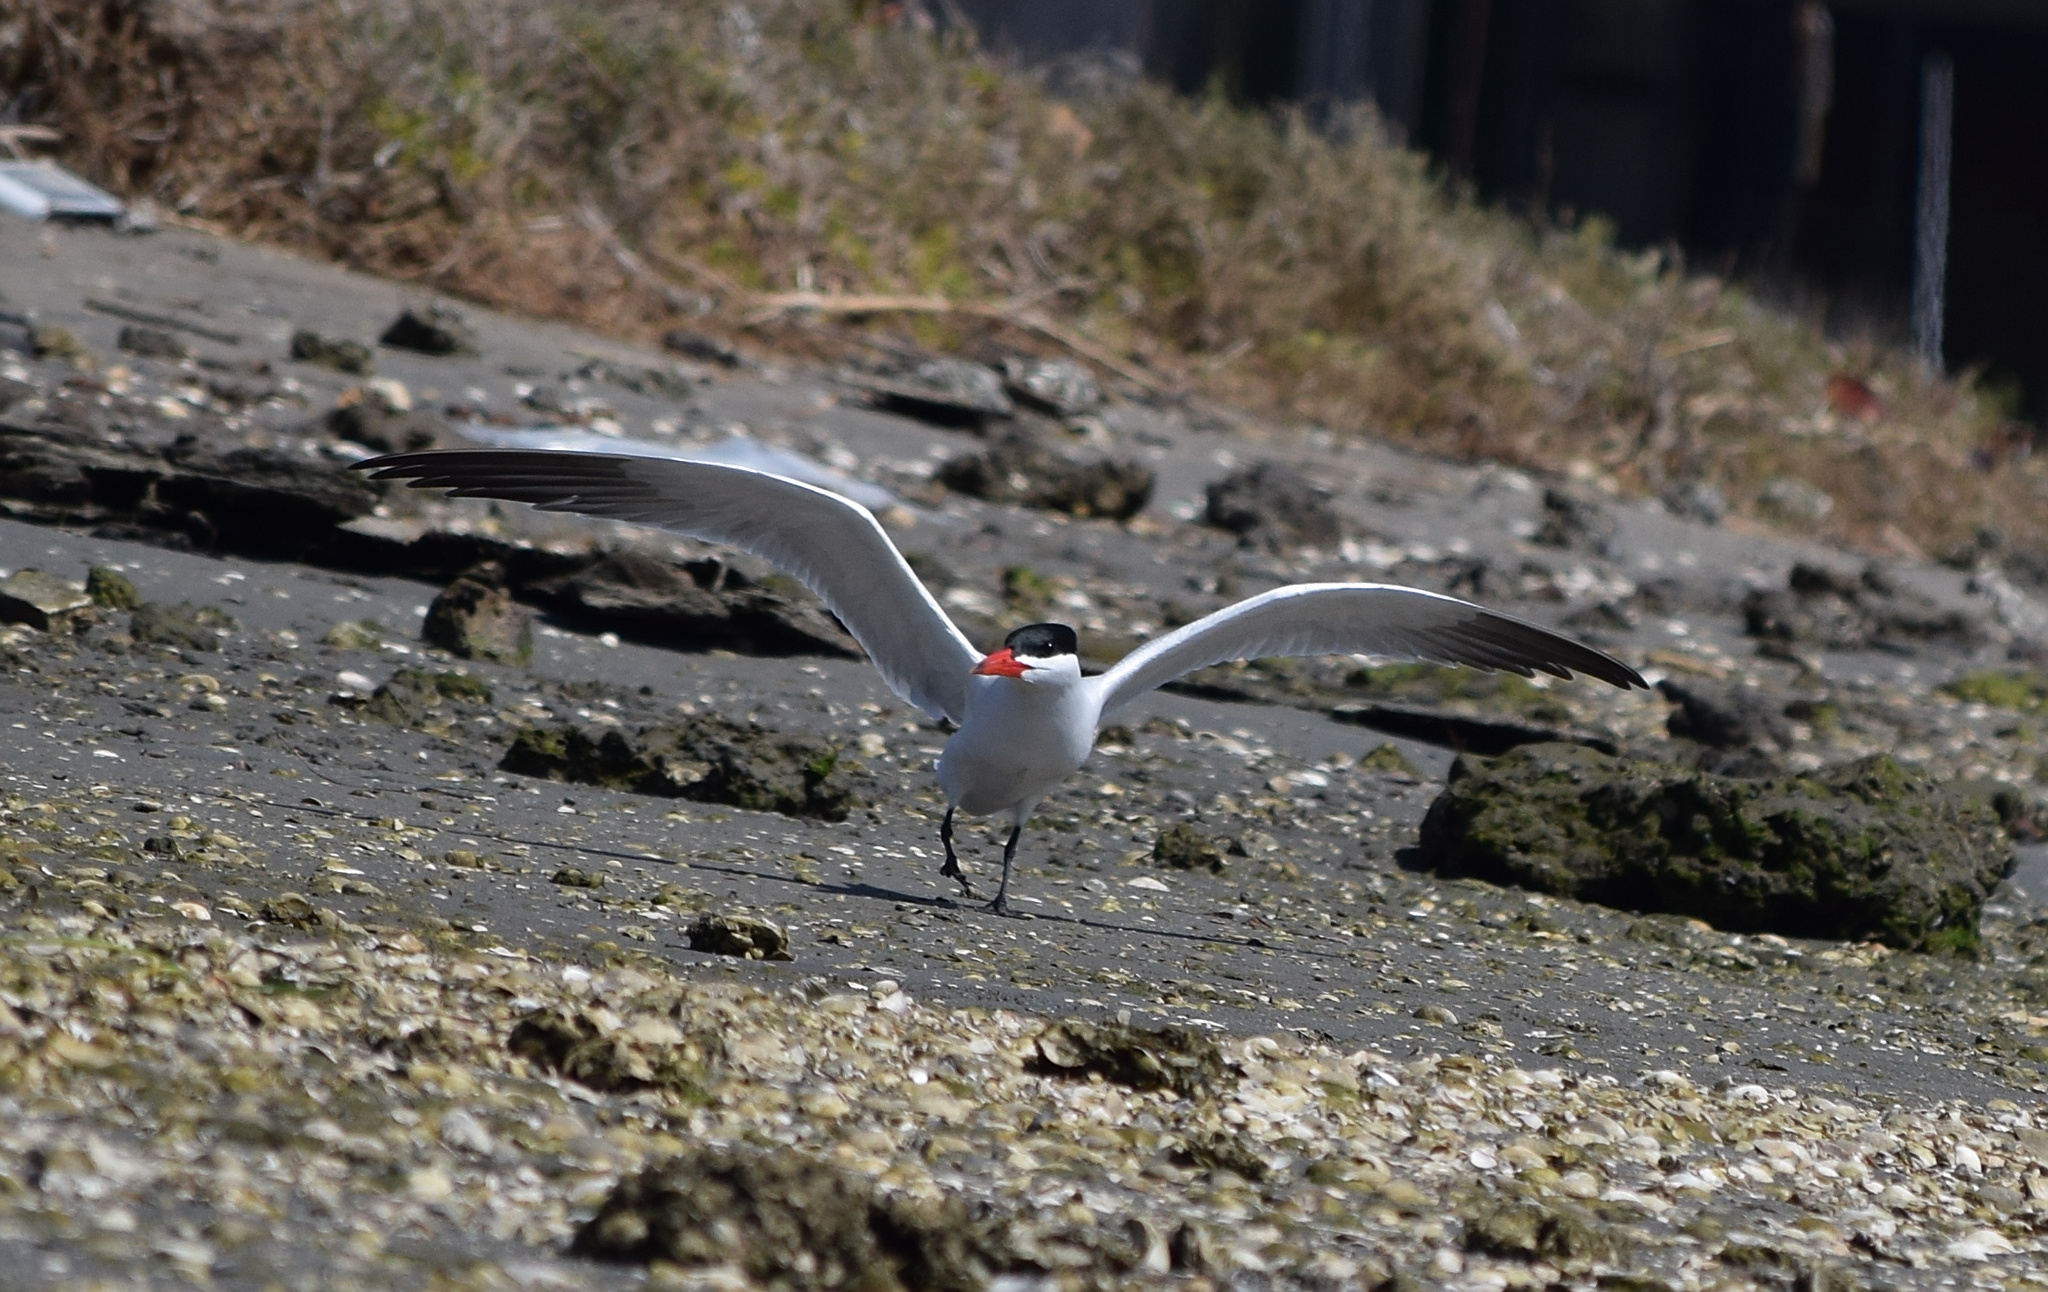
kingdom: Animalia
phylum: Chordata
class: Aves
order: Charadriiformes
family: Laridae
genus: Hydroprogne
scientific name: Hydroprogne caspia
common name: Caspian tern
